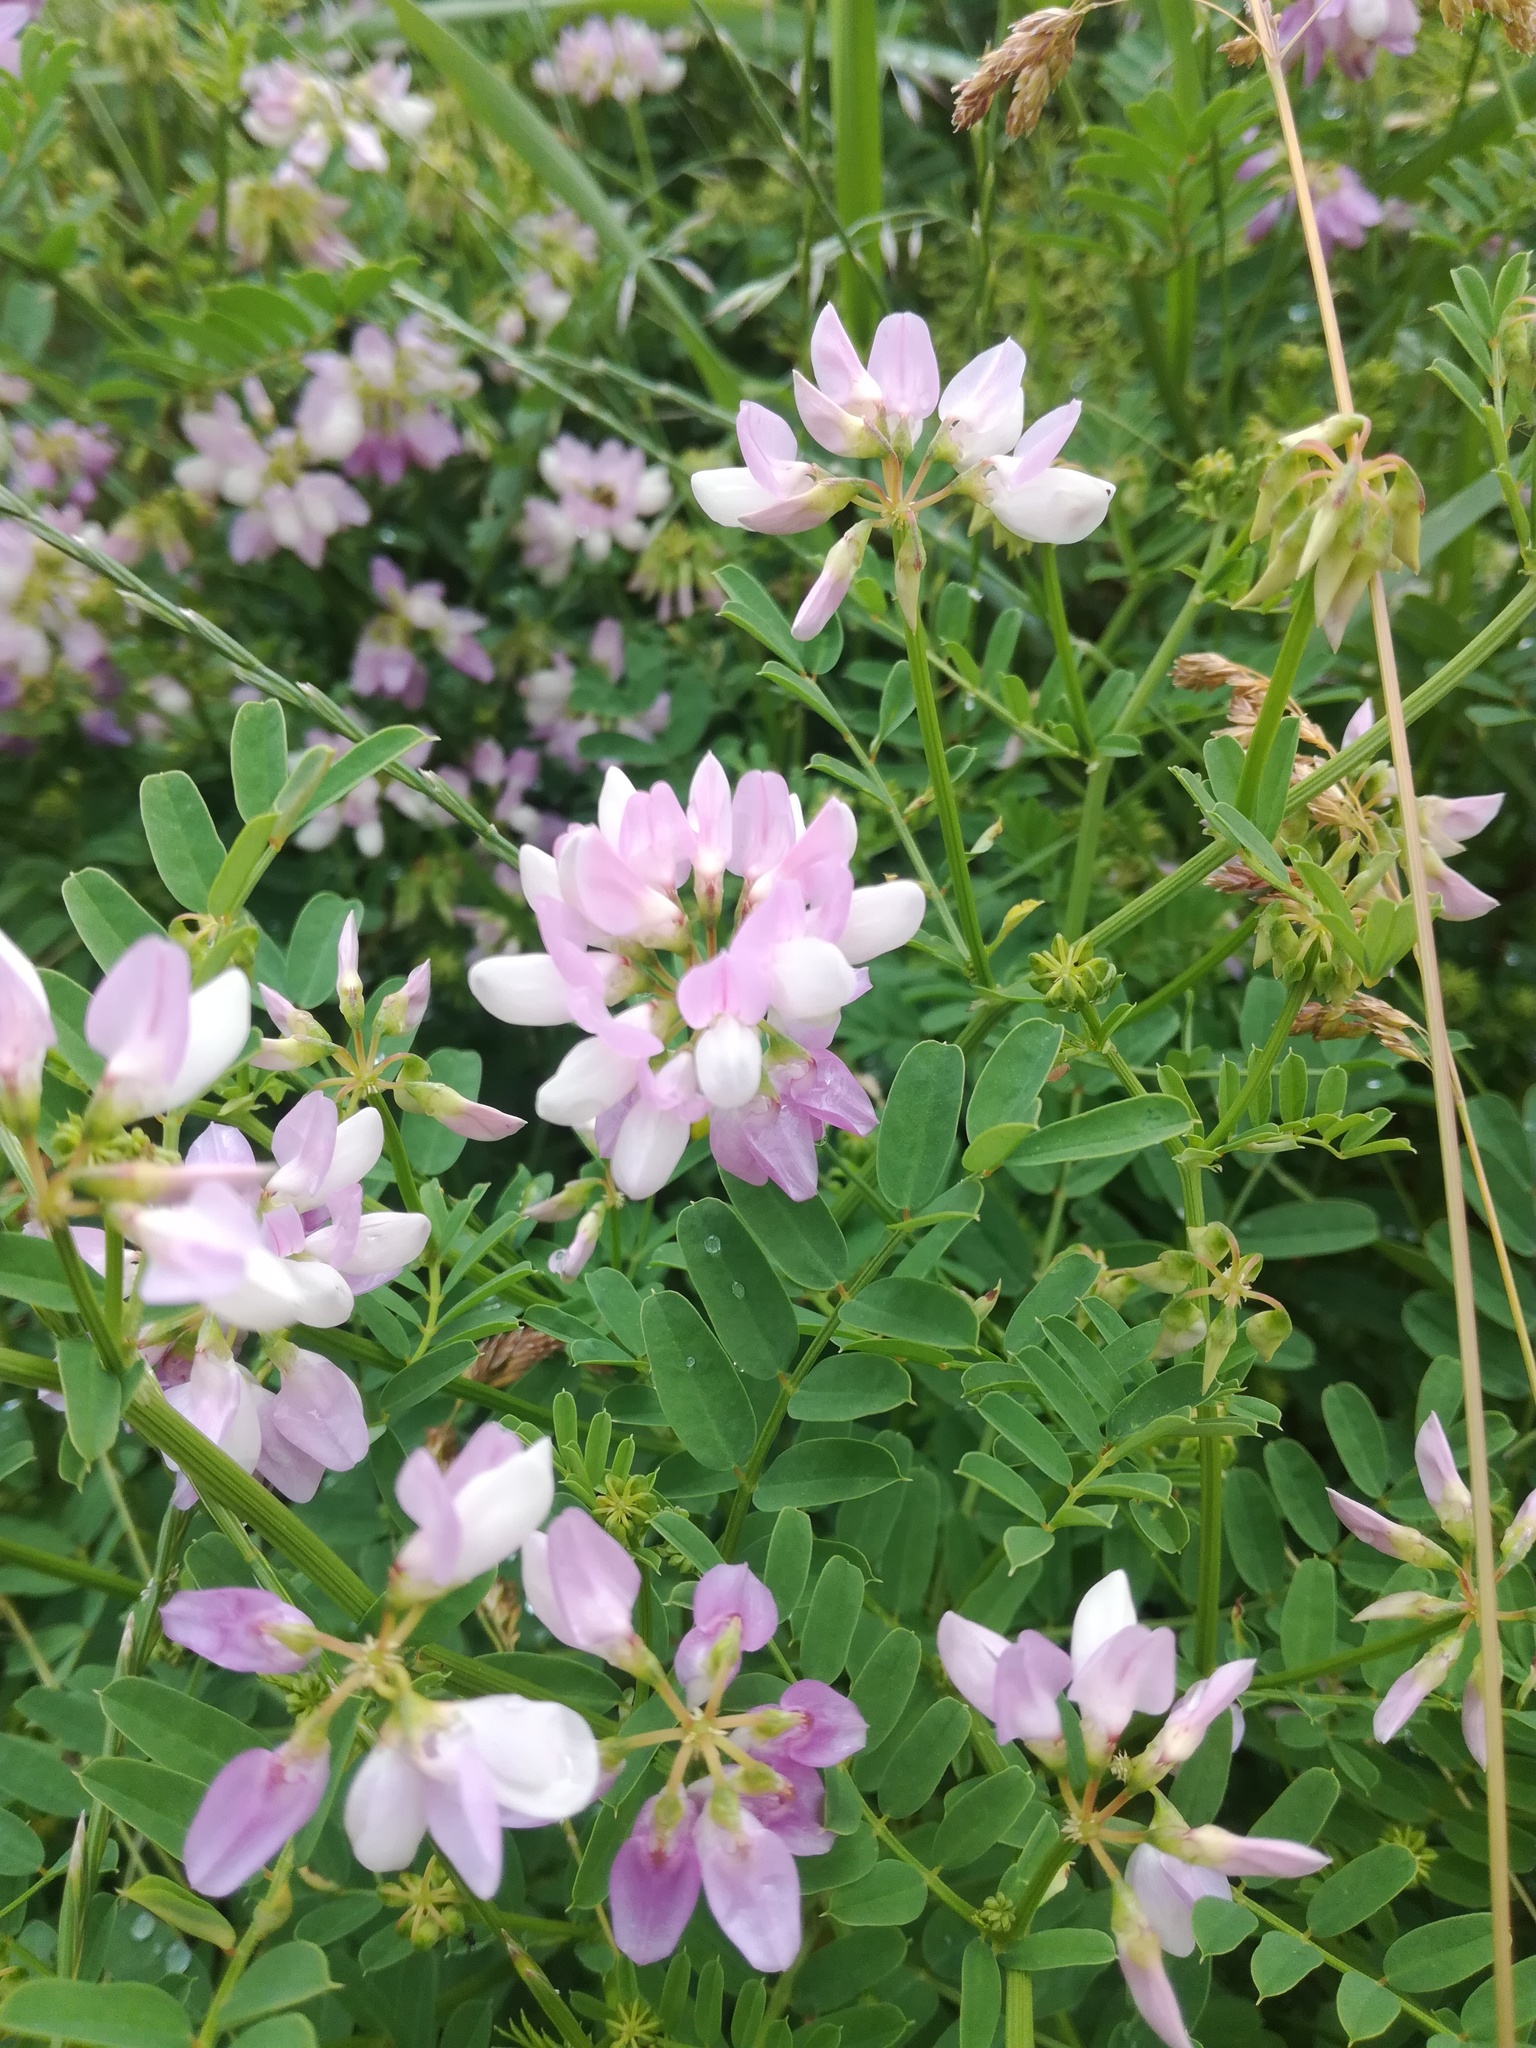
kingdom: Plantae
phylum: Tracheophyta
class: Magnoliopsida
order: Fabales
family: Fabaceae
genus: Coronilla
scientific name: Coronilla varia
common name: Crownvetch
